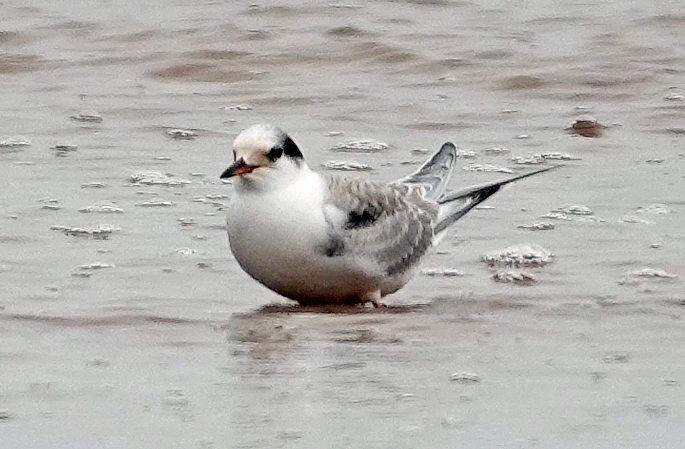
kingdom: Animalia
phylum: Chordata
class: Aves
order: Charadriiformes
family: Laridae
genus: Sterna
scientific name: Sterna hirundo
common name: Common tern
